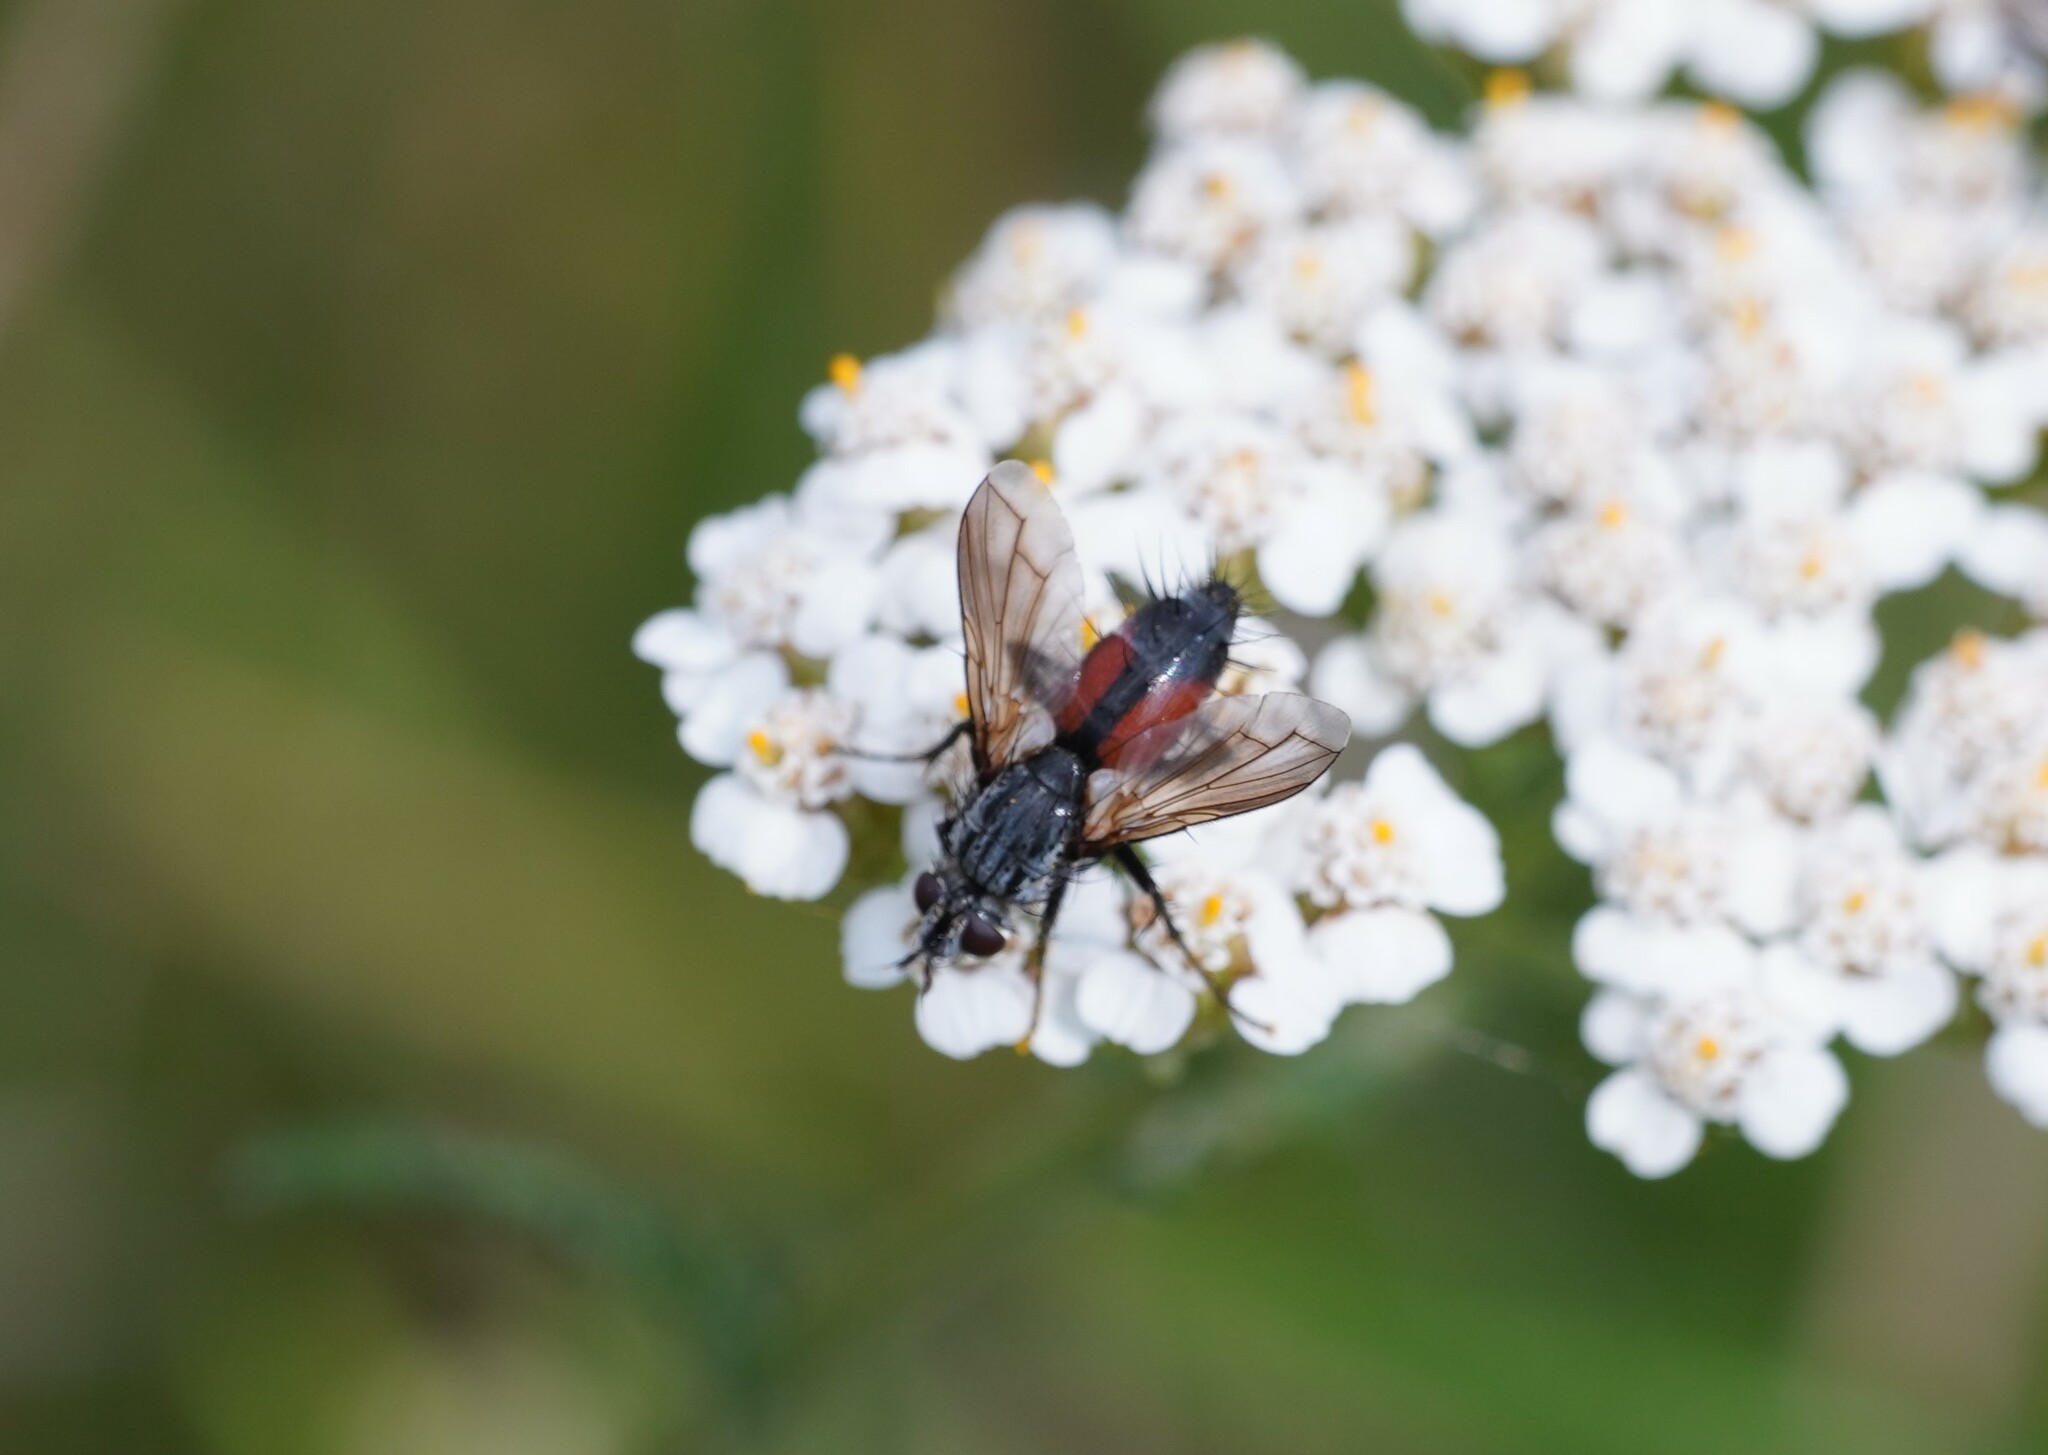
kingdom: Animalia
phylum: Arthropoda
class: Insecta
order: Diptera
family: Tachinidae
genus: Eriothrix
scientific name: Eriothrix rufomaculatus
